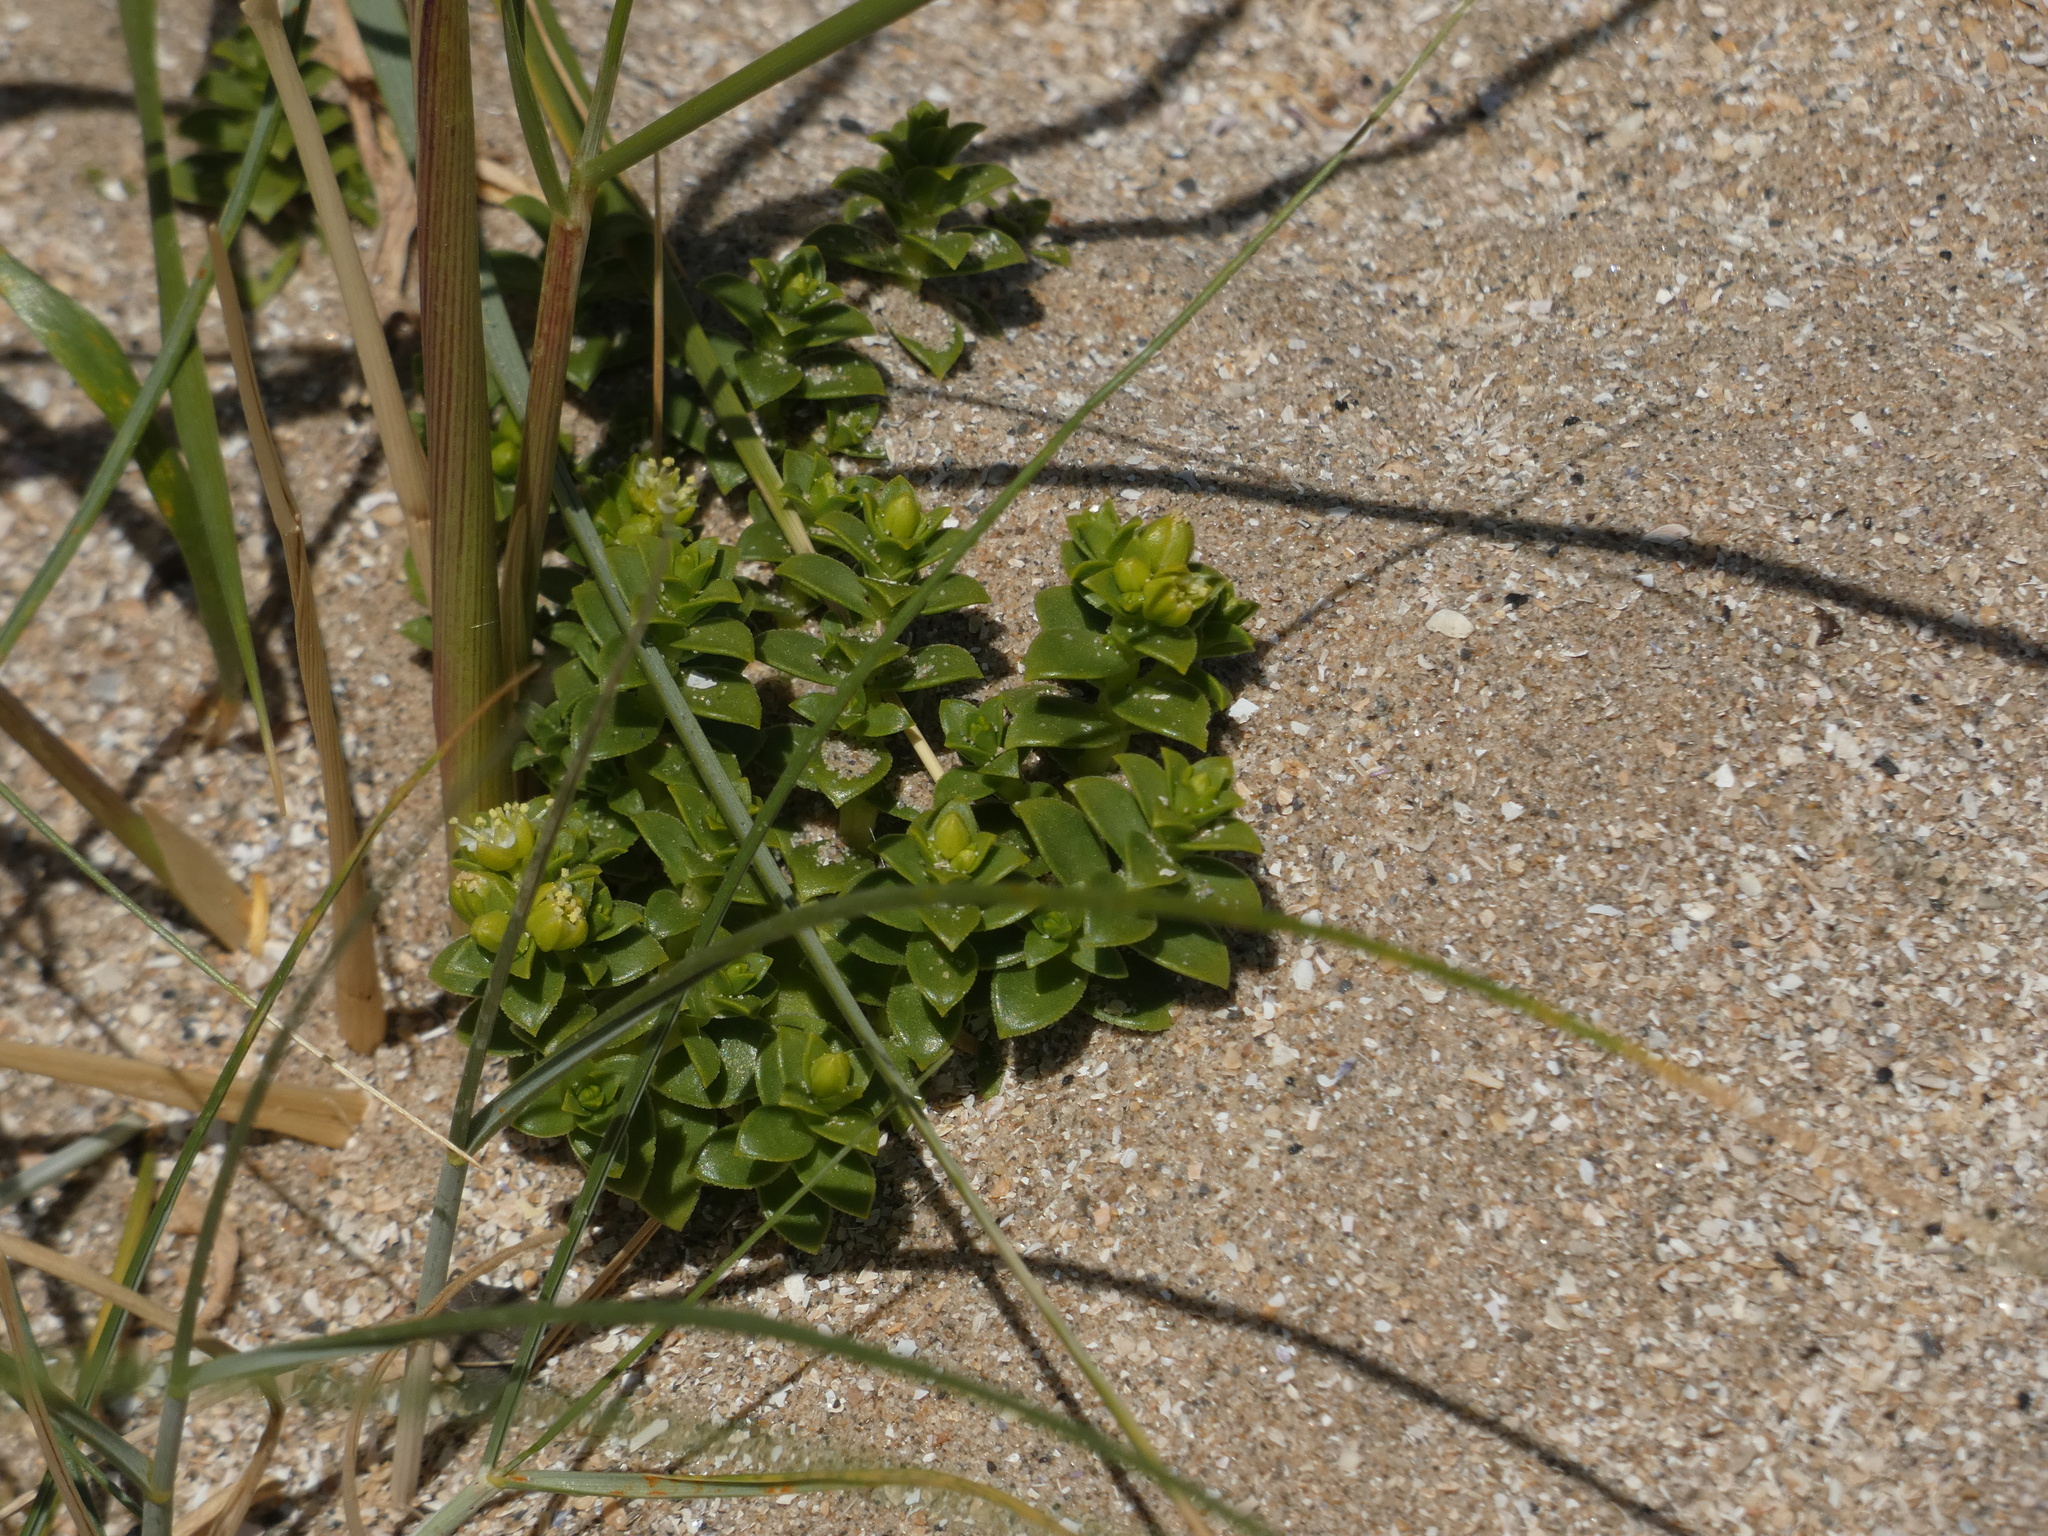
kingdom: Plantae
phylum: Tracheophyta
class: Magnoliopsida
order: Caryophyllales
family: Caryophyllaceae
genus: Honckenya
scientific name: Honckenya peploides
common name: Sea sandwort
